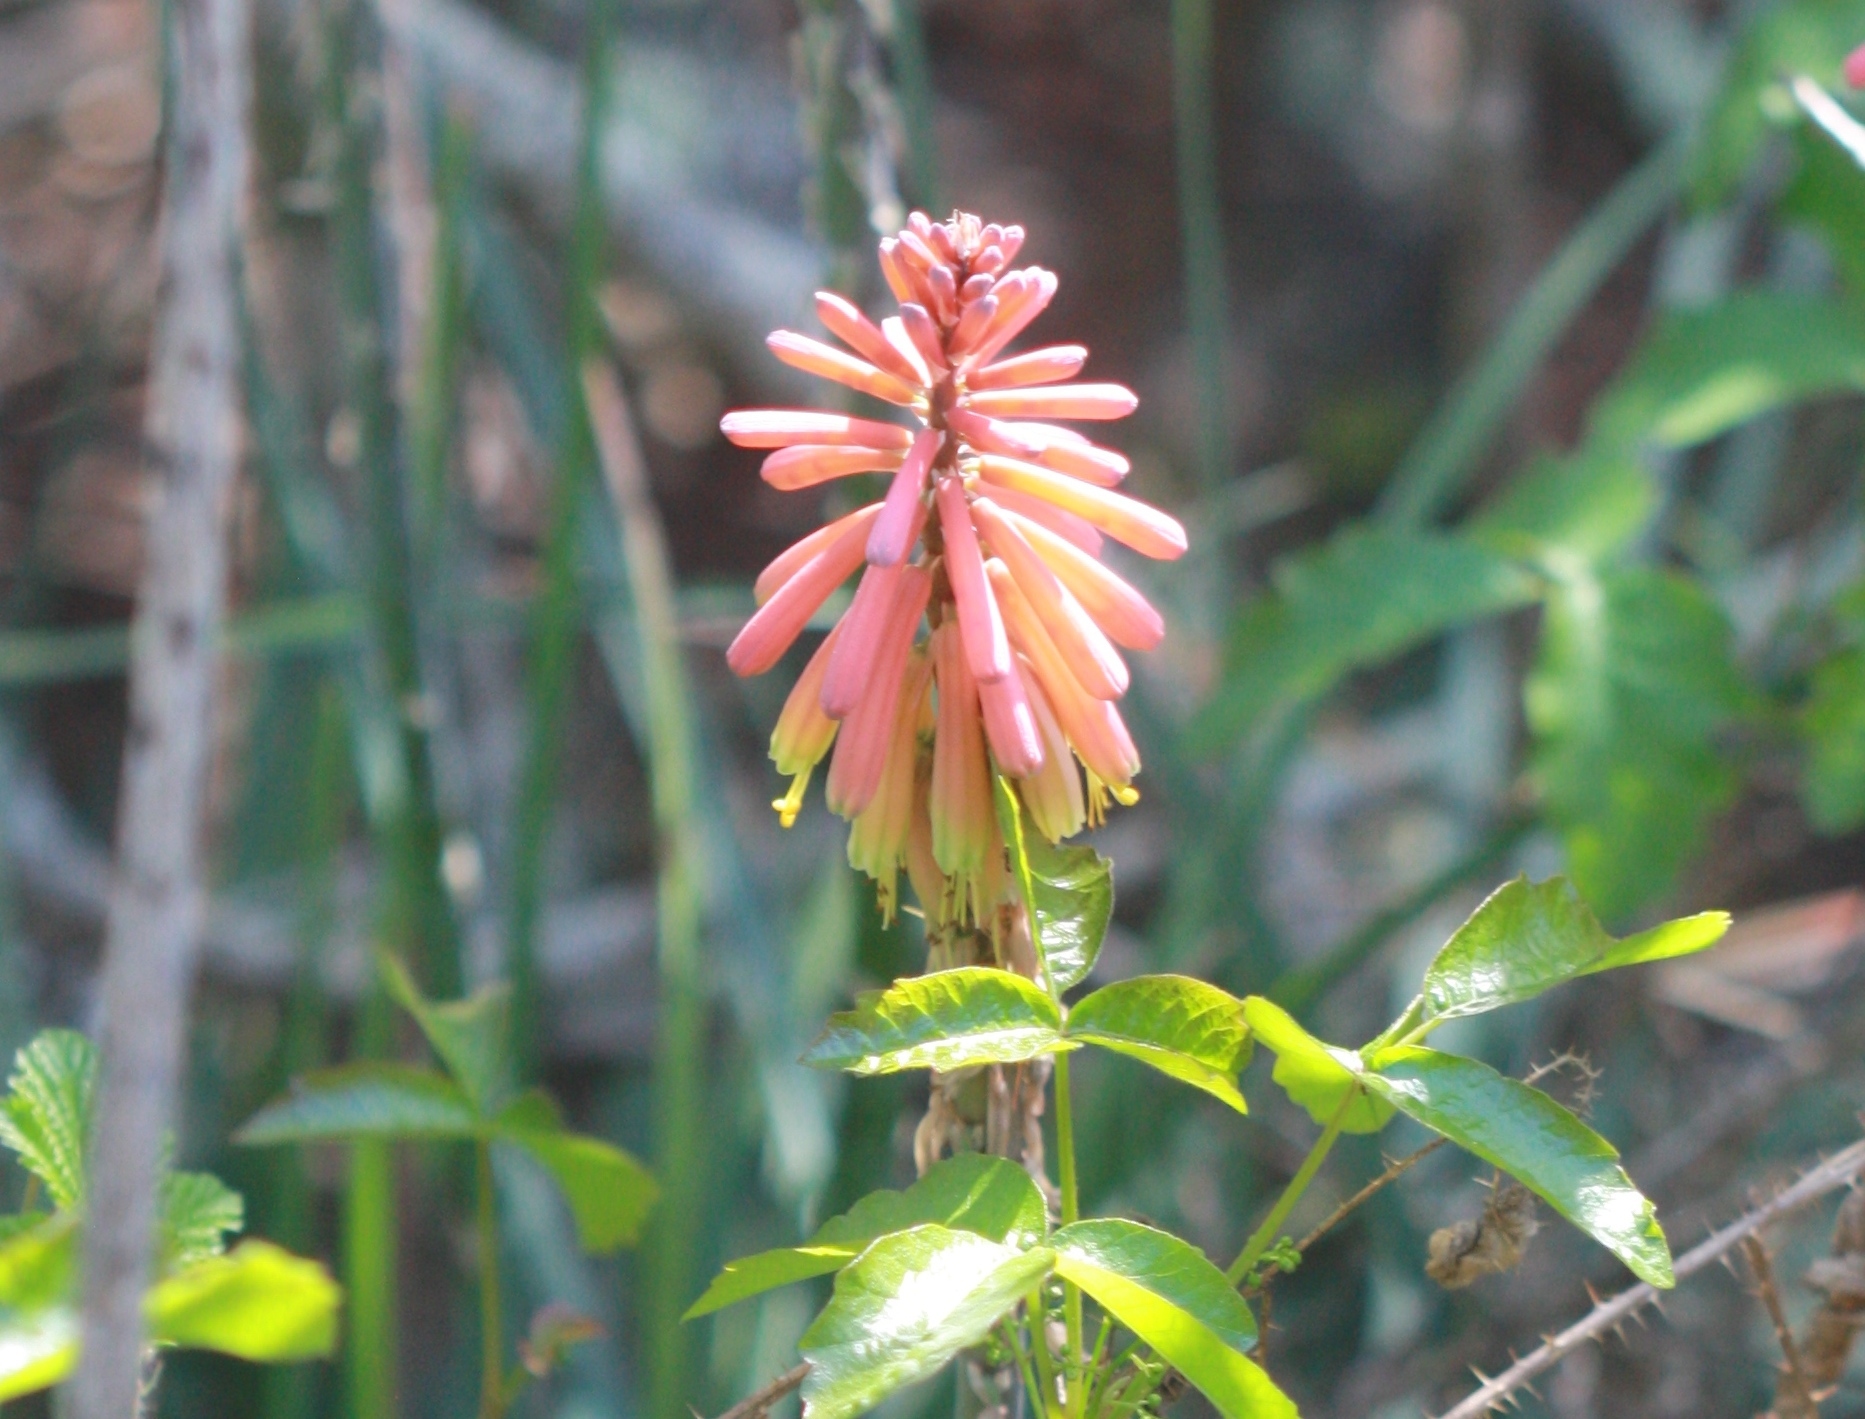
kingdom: Plantae
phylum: Tracheophyta
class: Liliopsida
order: Asparagales
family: Asphodelaceae
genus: Kniphofia
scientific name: Kniphofia uvaria
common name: Red-hot-poker
